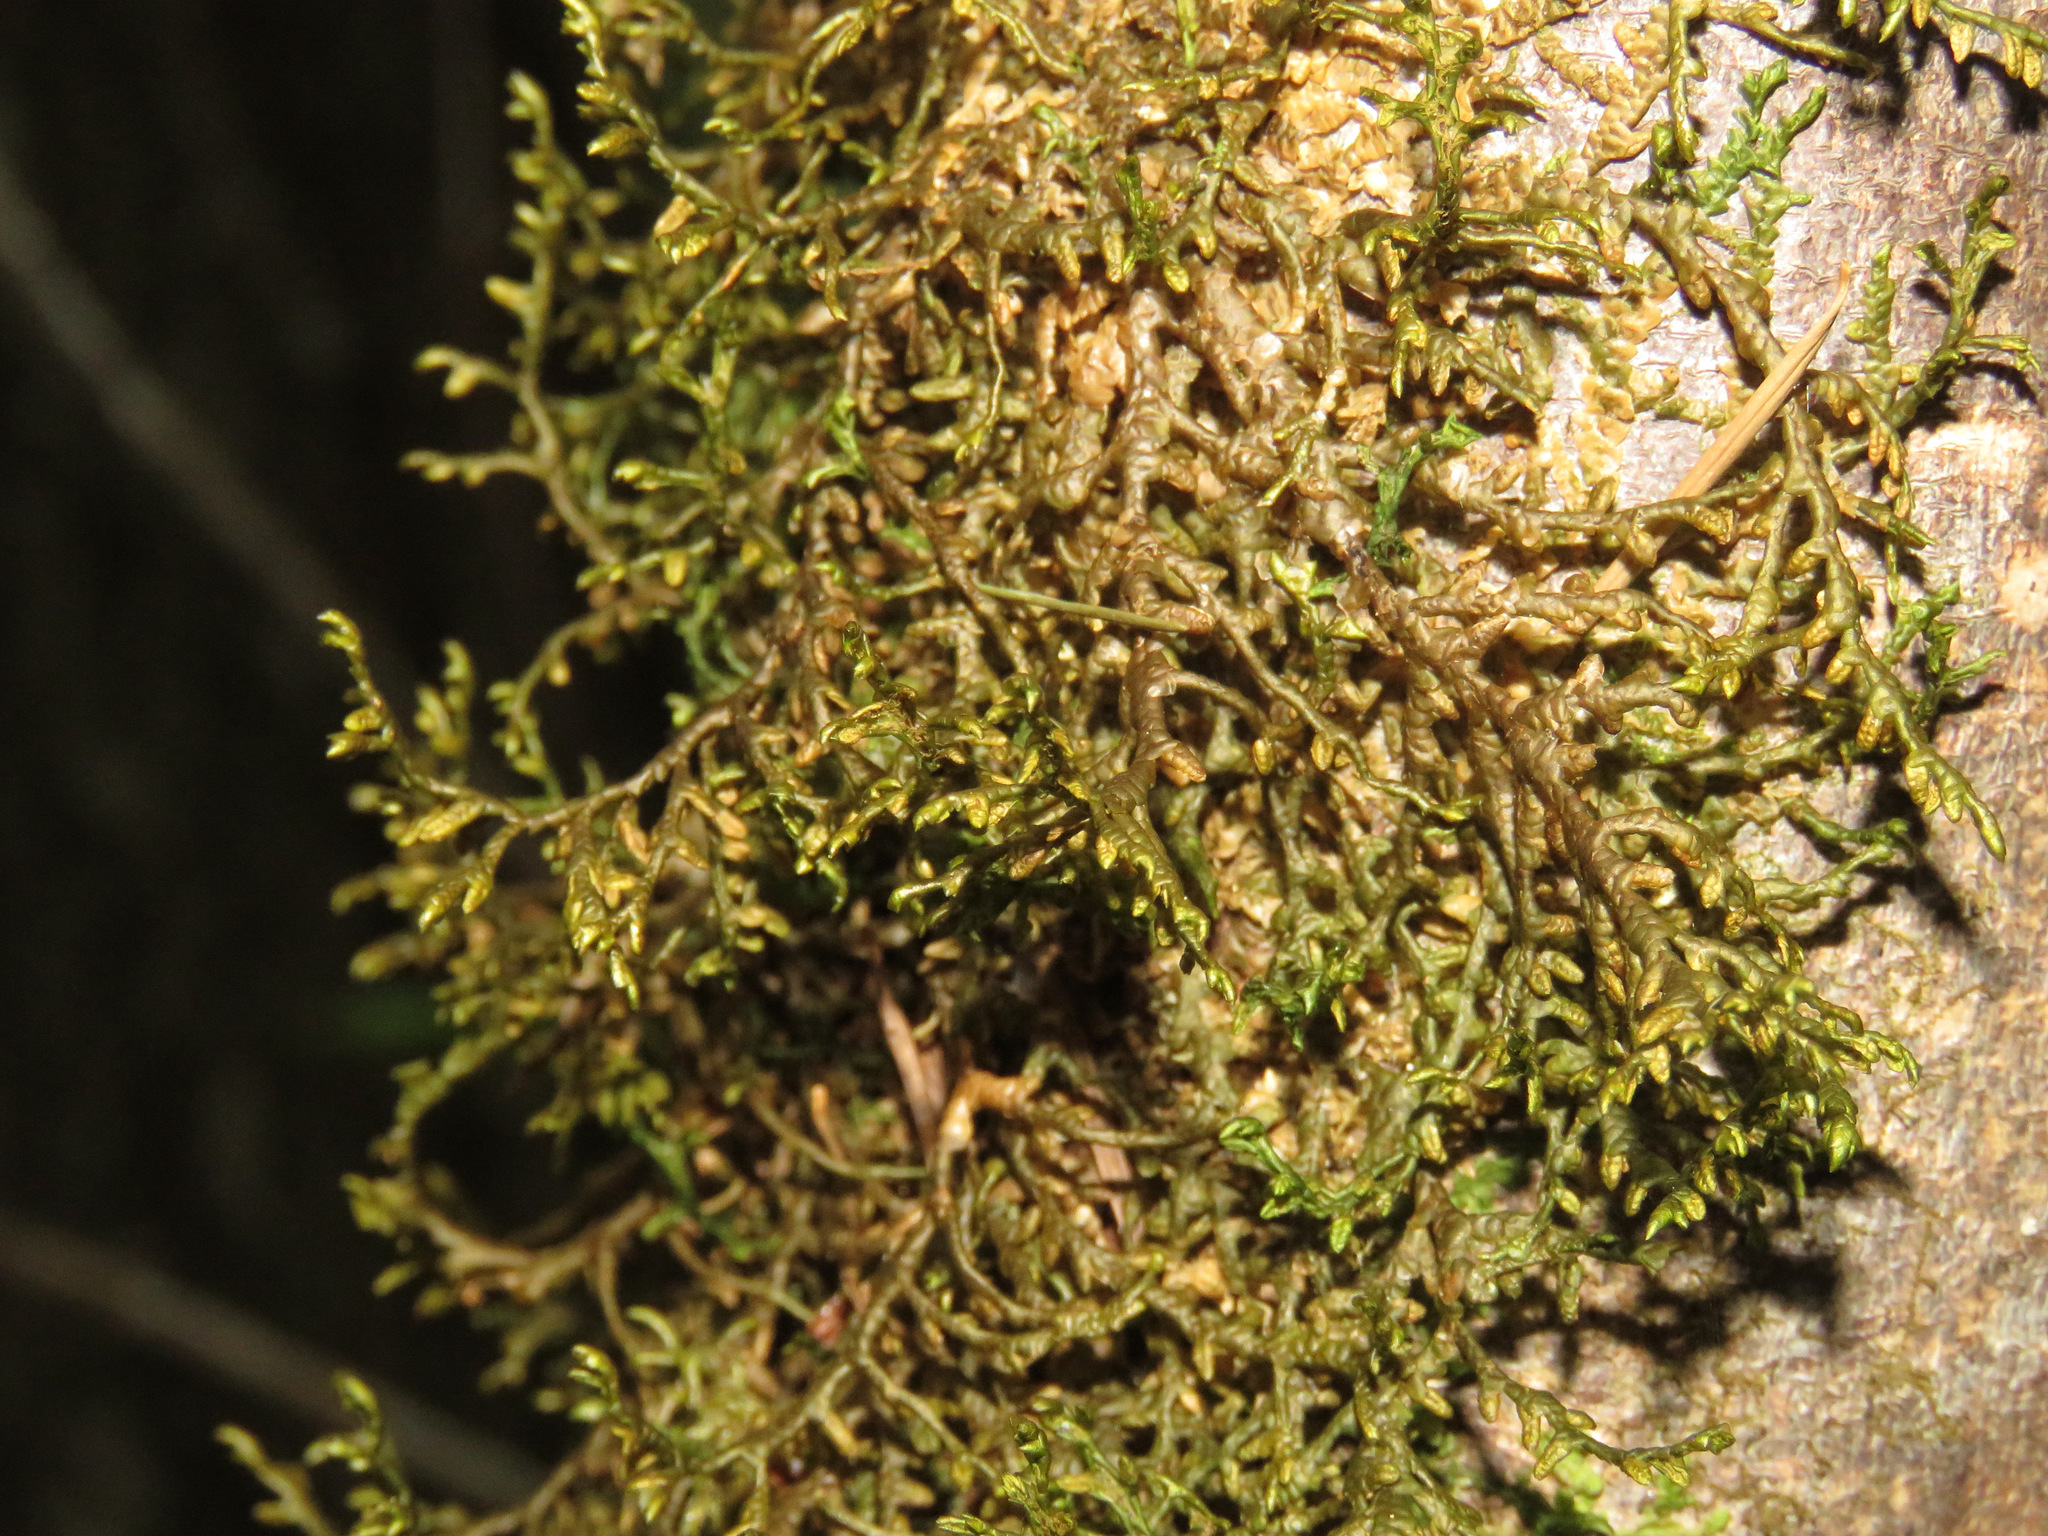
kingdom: Plantae
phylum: Marchantiophyta
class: Jungermanniopsida
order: Porellales
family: Porellaceae
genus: Porella
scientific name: Porella navicularis
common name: Tree ruffle liverwort
